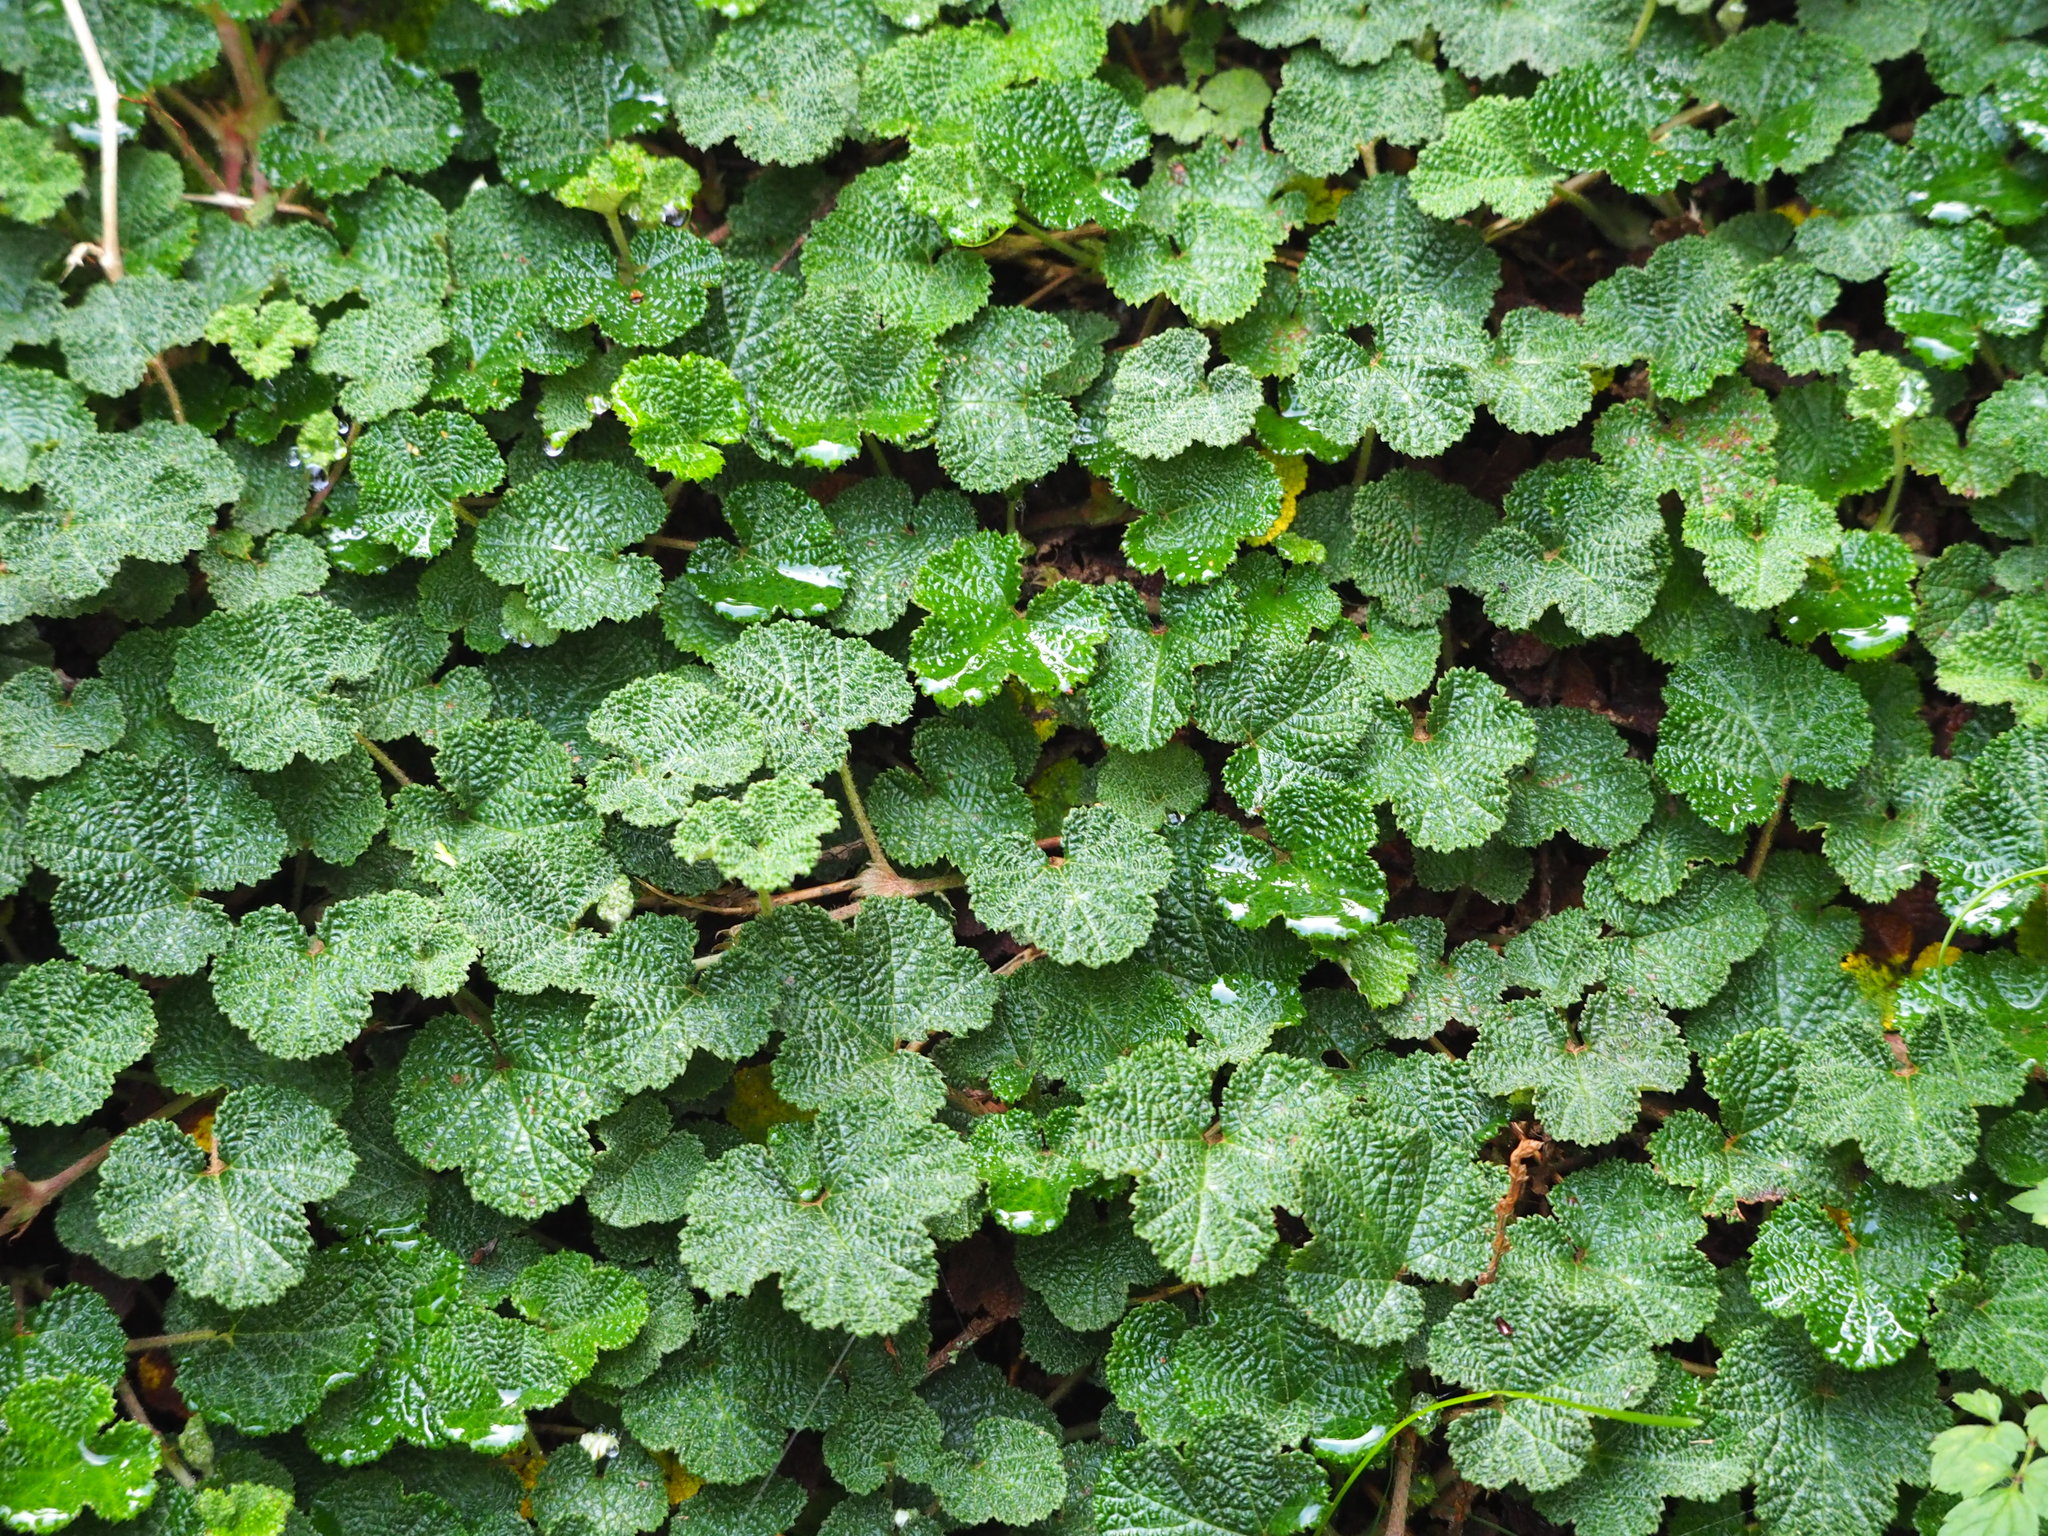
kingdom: Plantae
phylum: Tracheophyta
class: Magnoliopsida
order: Rosales
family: Rosaceae
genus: Rubus
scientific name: Rubus rolfei
